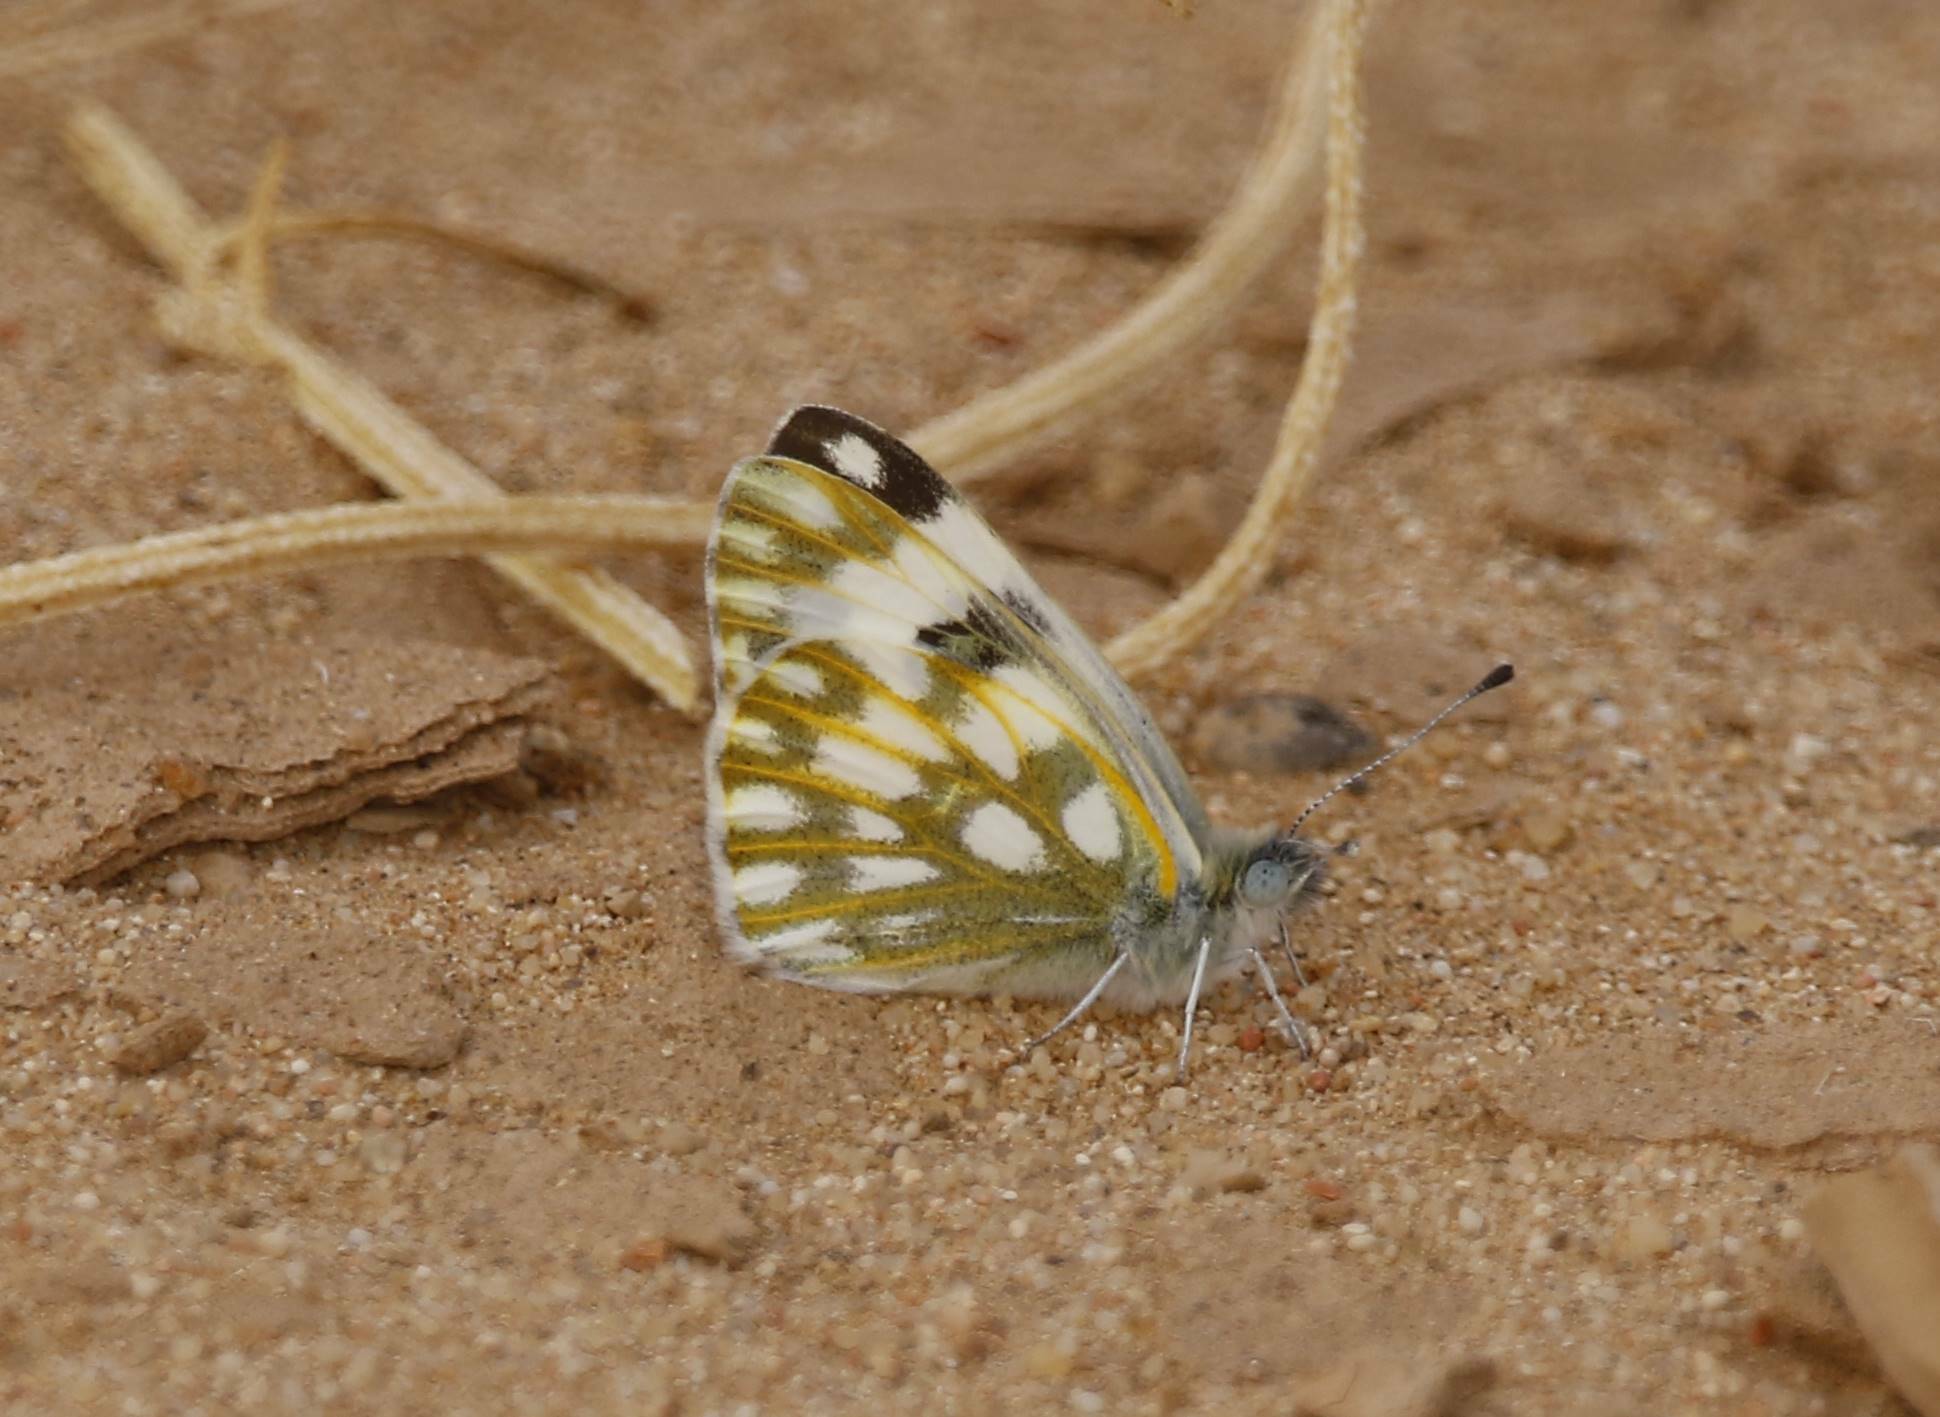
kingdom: Animalia
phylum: Arthropoda
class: Insecta
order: Lepidoptera
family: Pieridae
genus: Pontia
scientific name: Pontia glauconome
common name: Desert bath white
